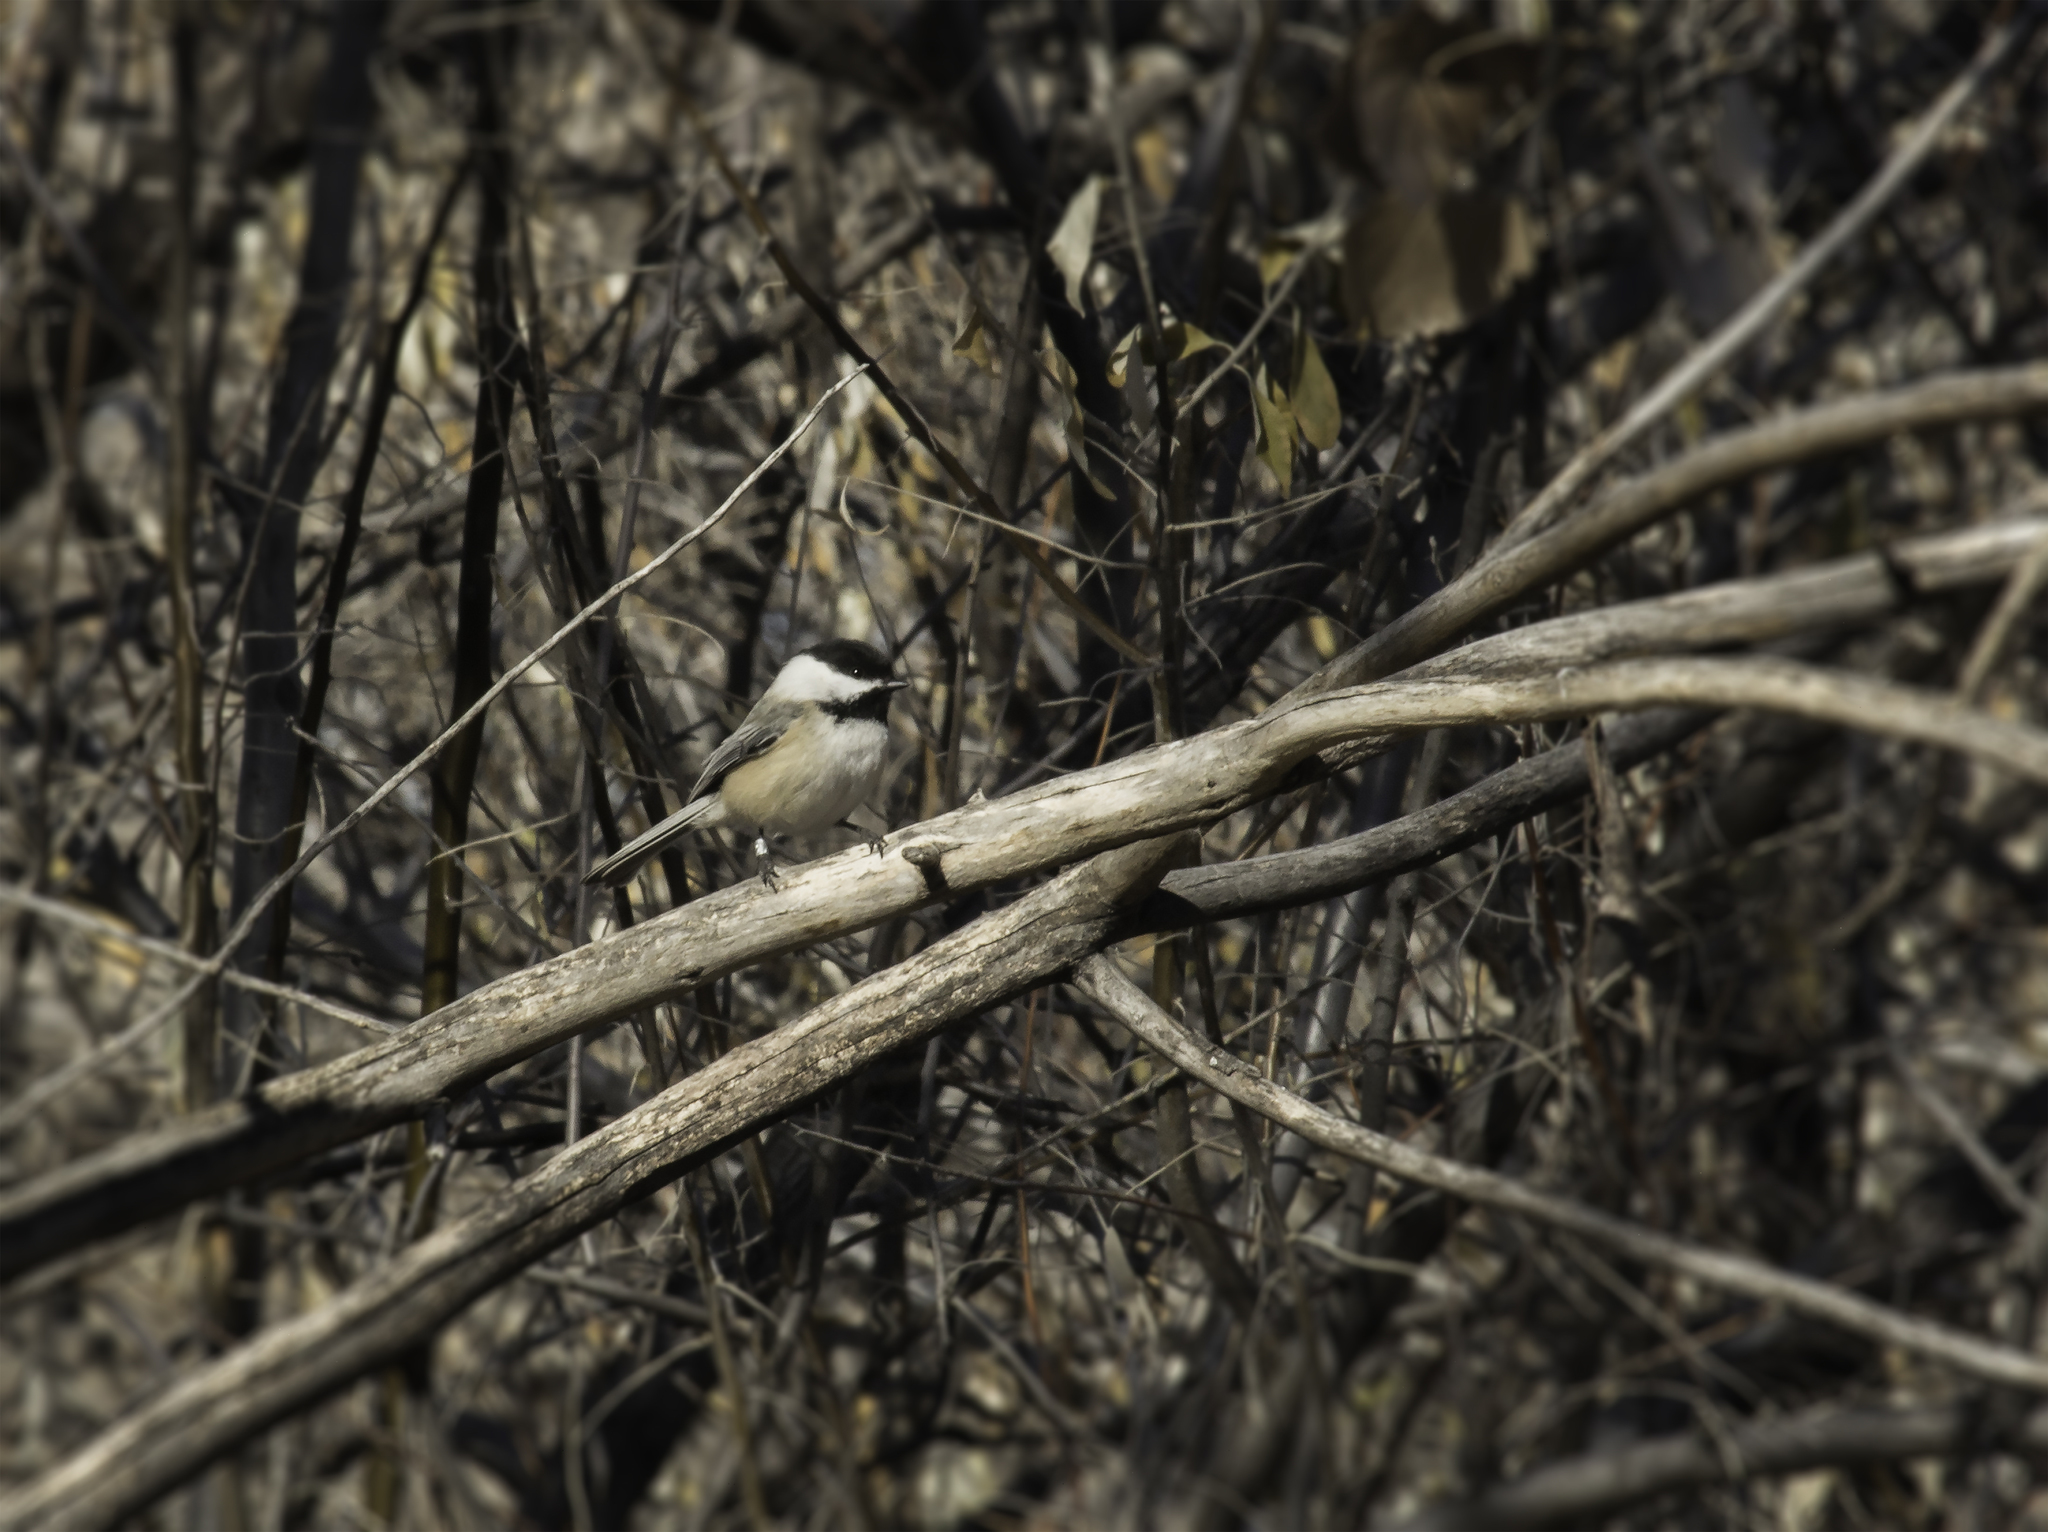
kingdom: Animalia
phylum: Chordata
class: Aves
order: Passeriformes
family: Paridae
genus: Poecile
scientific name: Poecile atricapillus
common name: Black-capped chickadee
